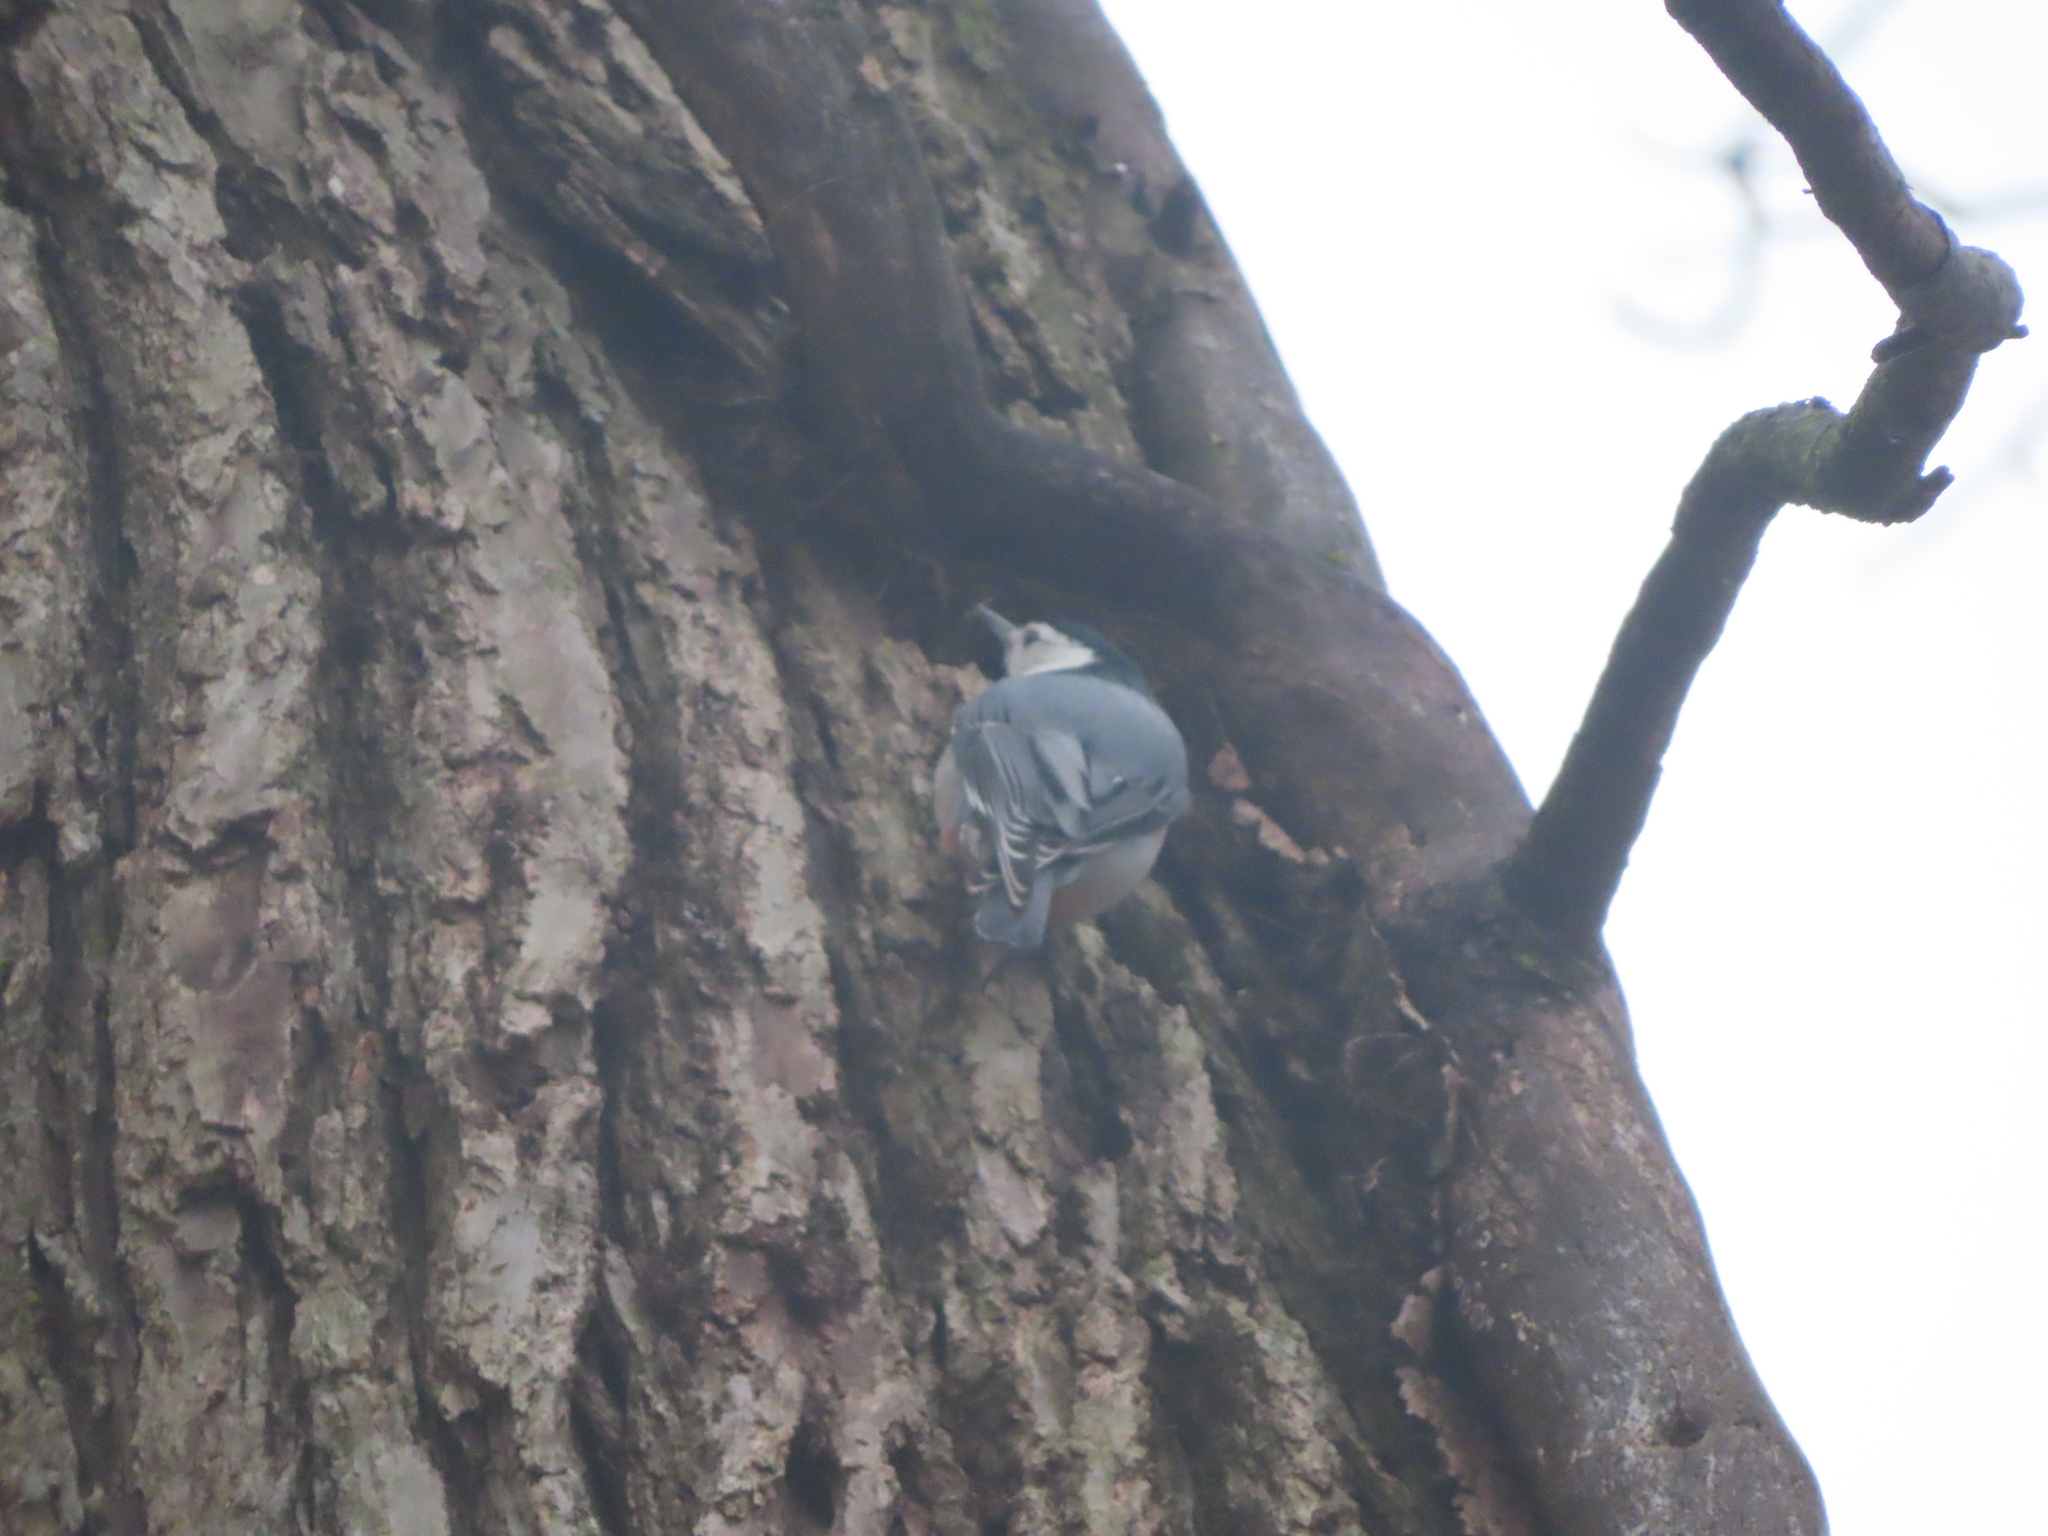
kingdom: Animalia
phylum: Chordata
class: Aves
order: Passeriformes
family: Sittidae
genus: Sitta
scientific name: Sitta carolinensis
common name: White-breasted nuthatch
